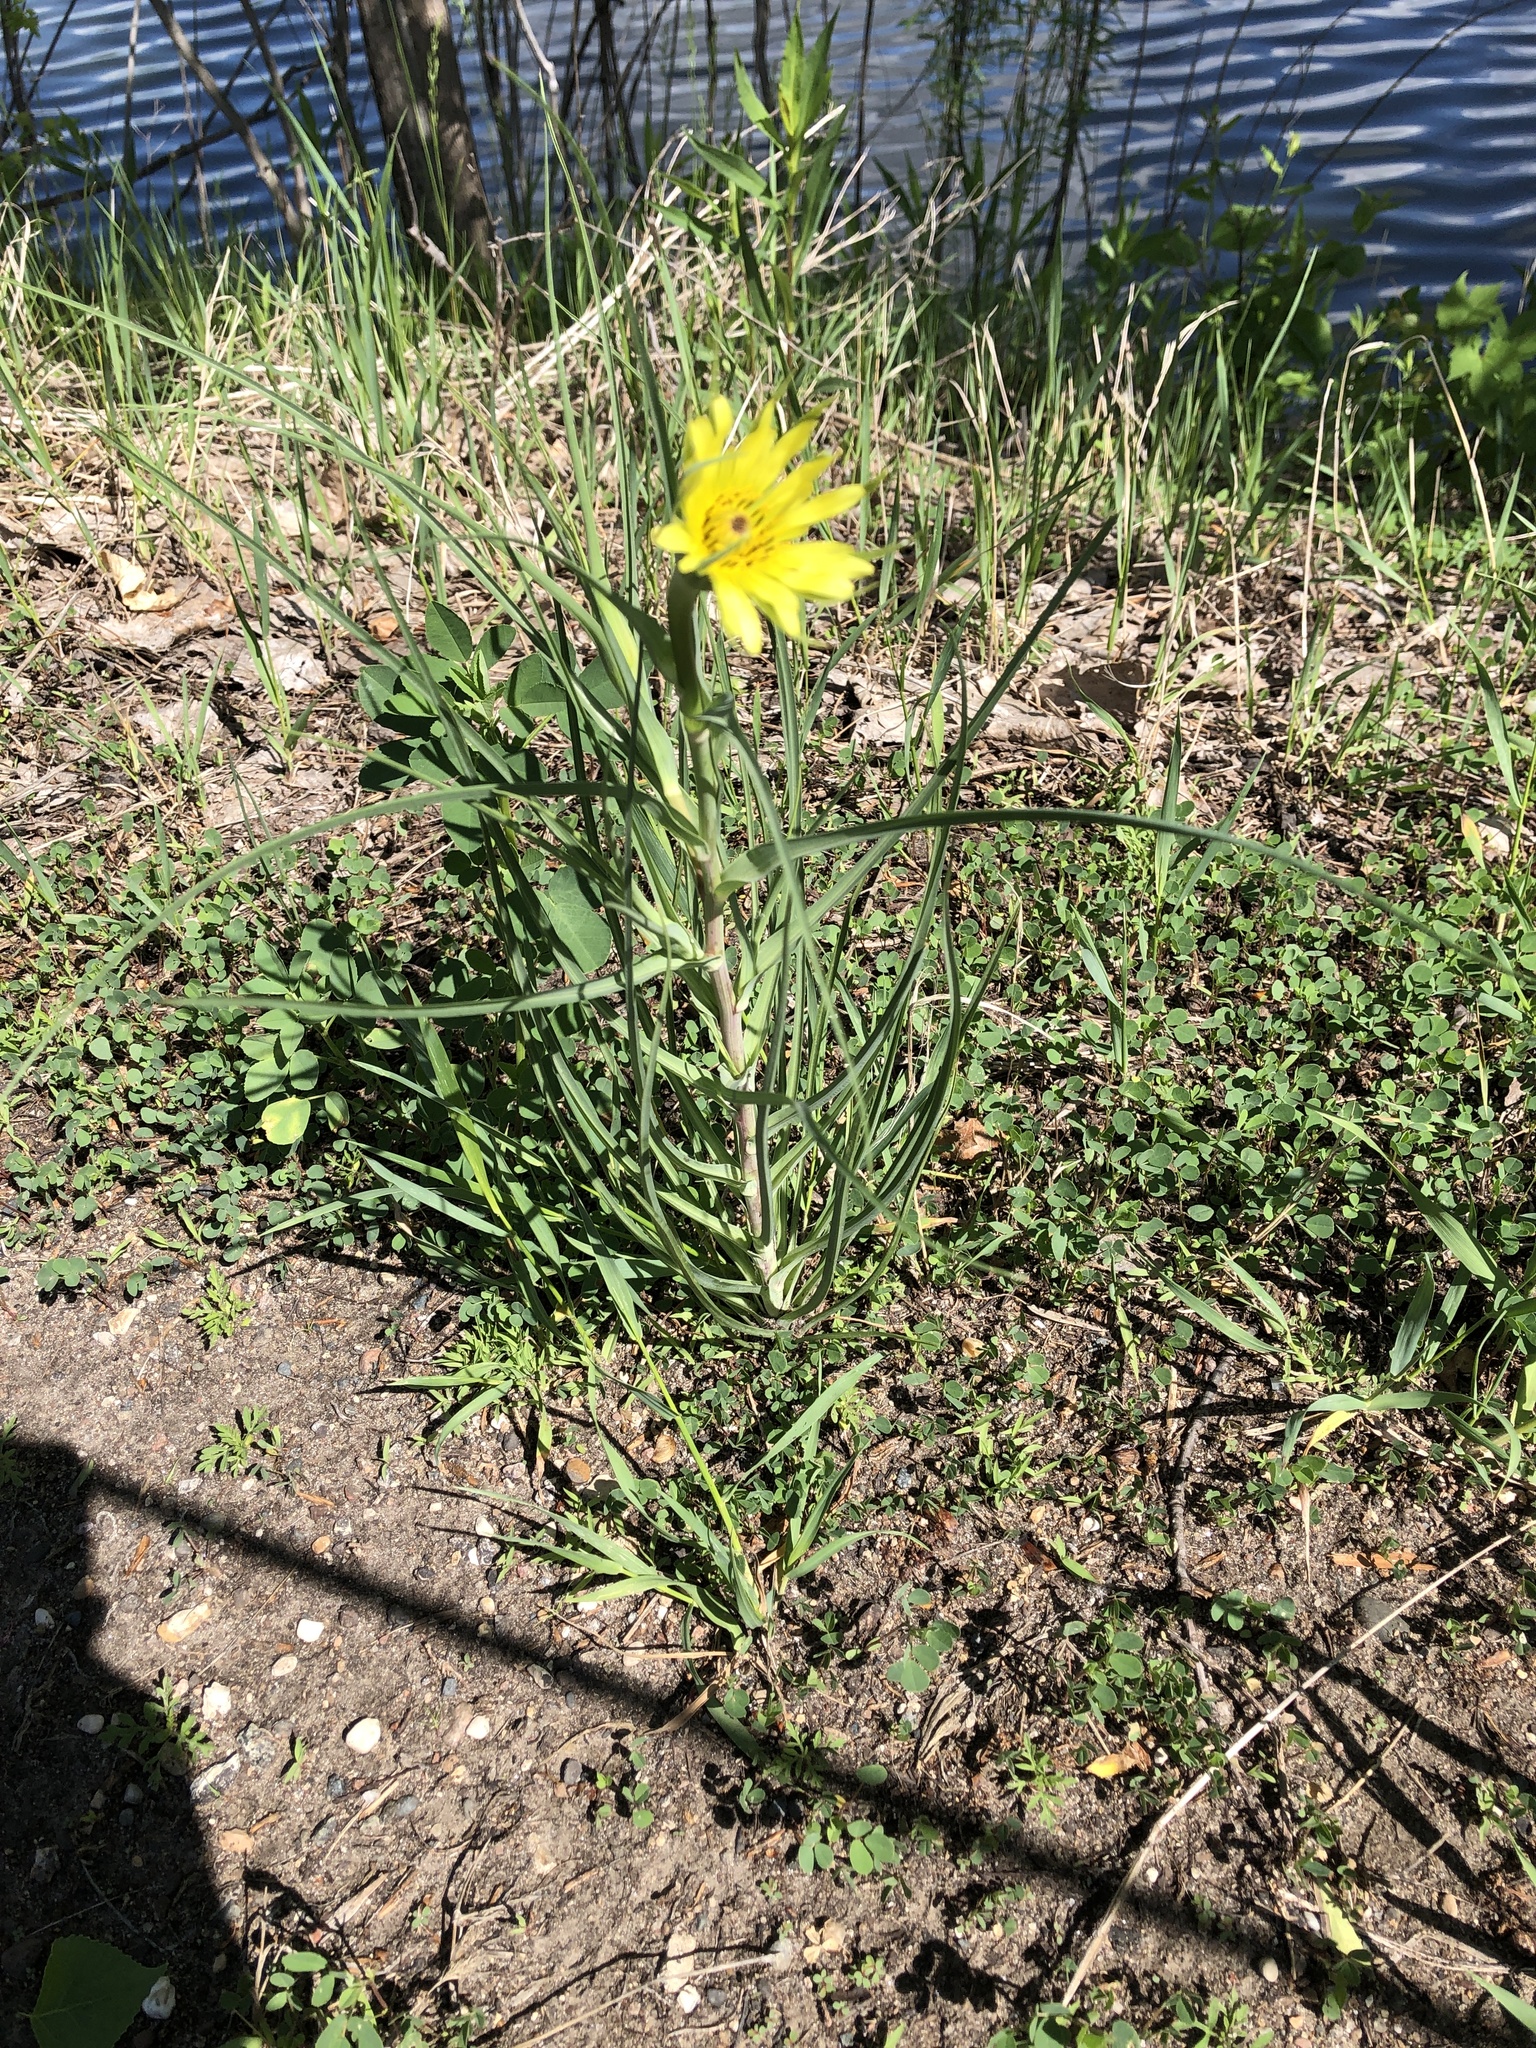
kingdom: Plantae
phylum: Tracheophyta
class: Magnoliopsida
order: Asterales
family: Asteraceae
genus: Tragopogon
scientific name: Tragopogon dubius
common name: Yellow salsify
